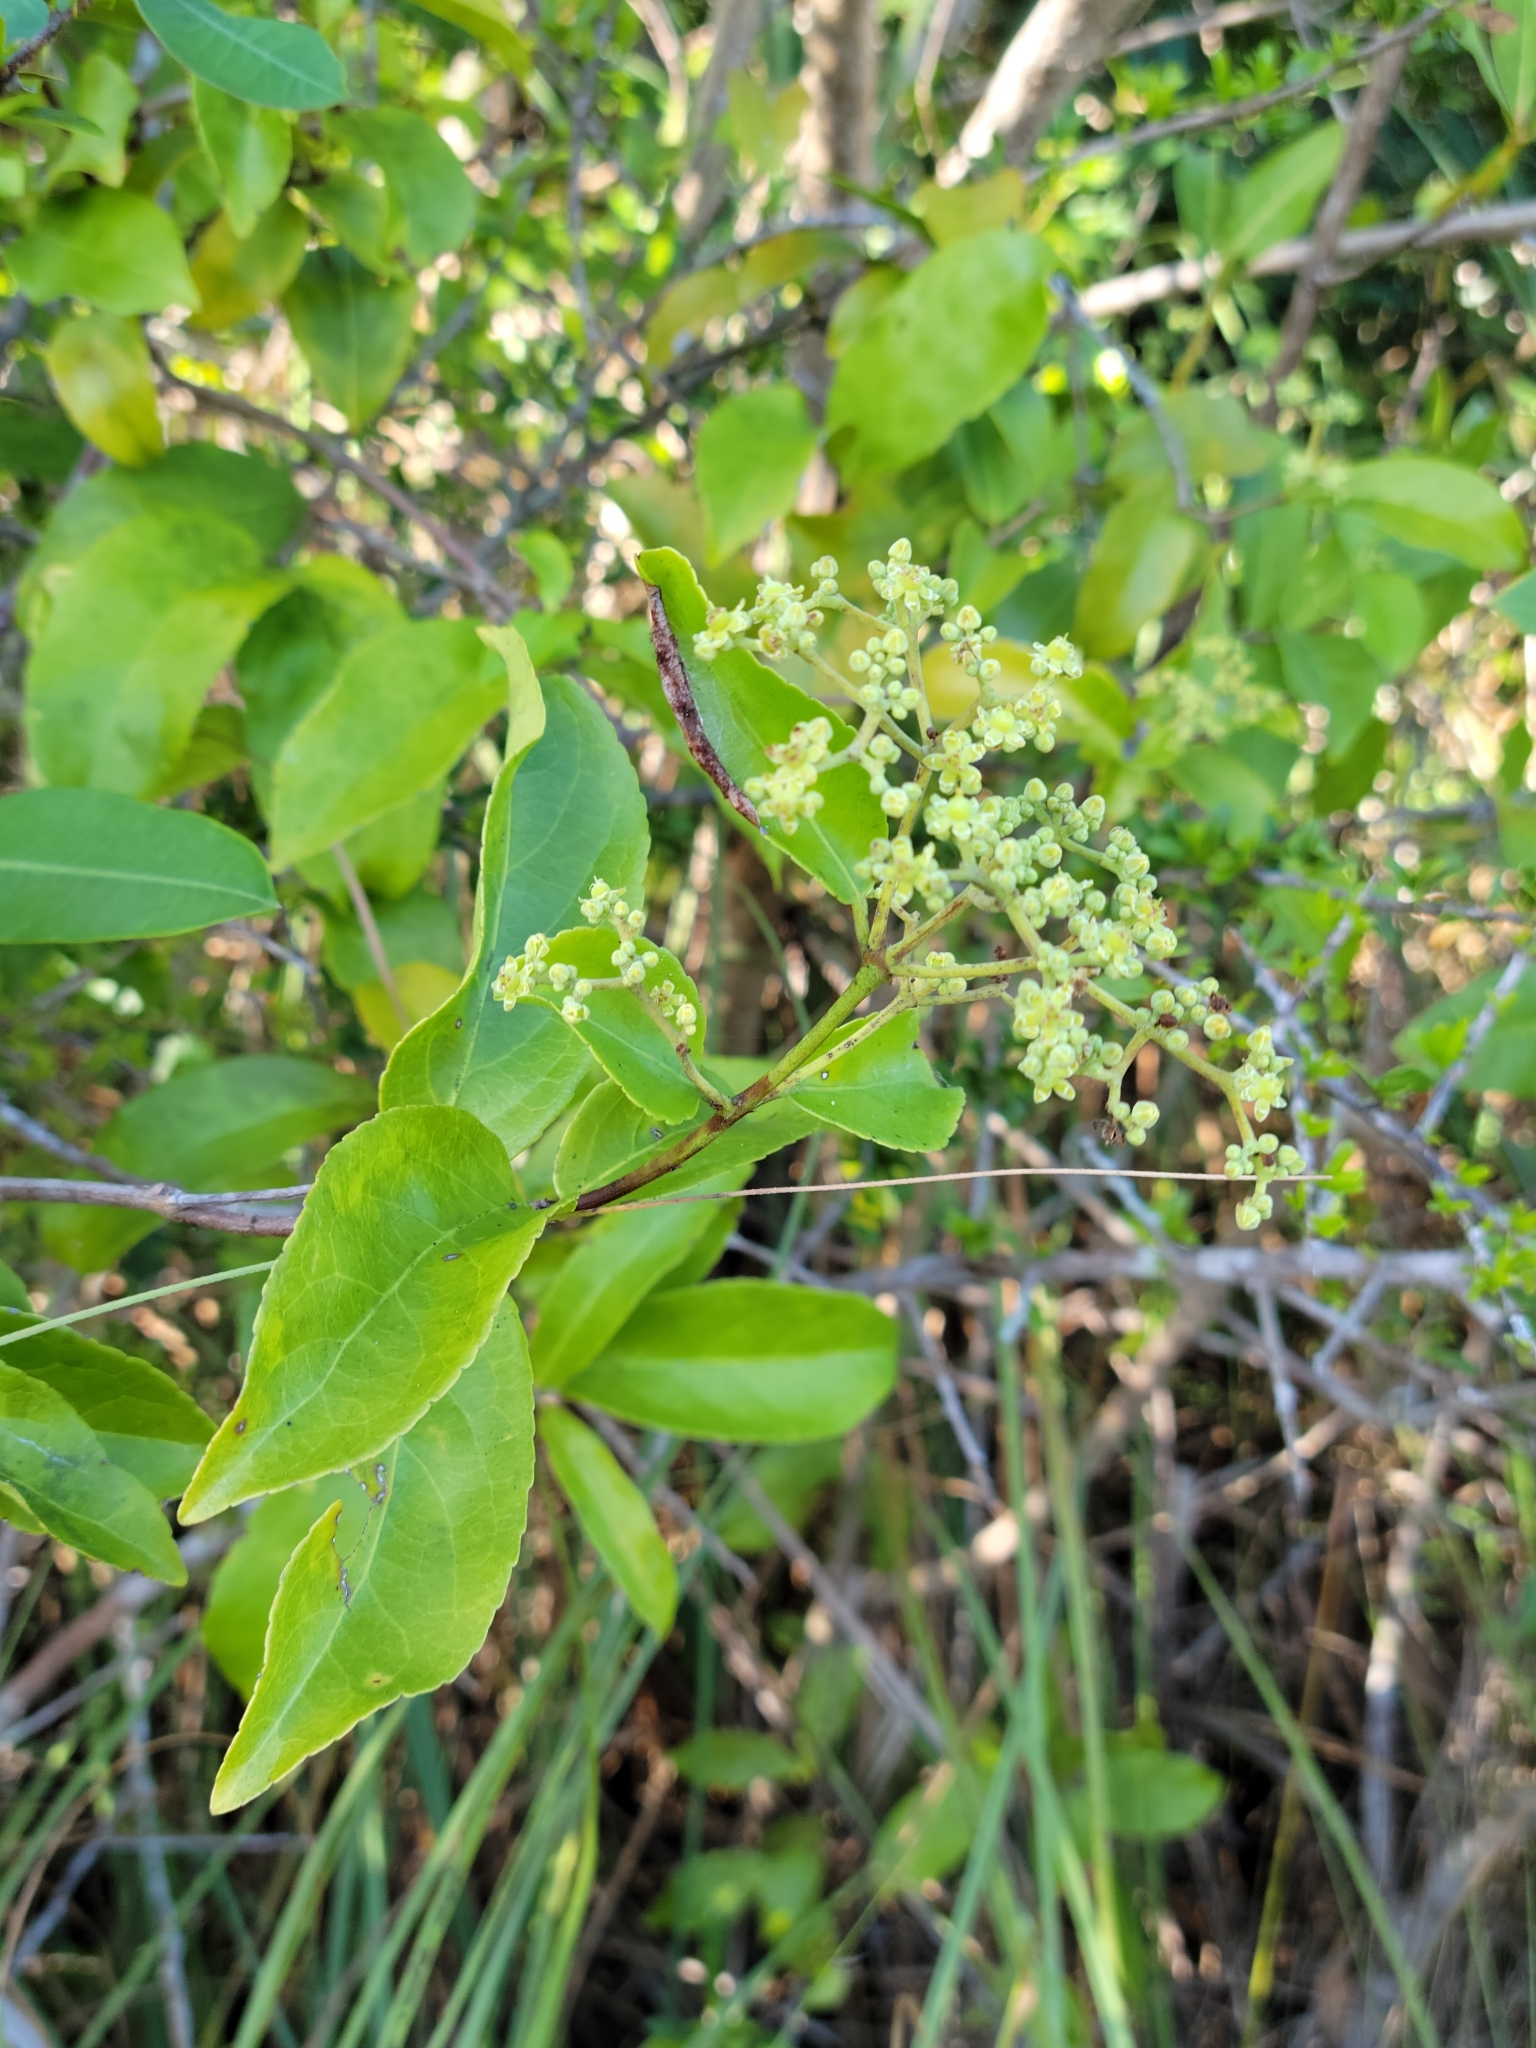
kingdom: Plantae
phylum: Tracheophyta
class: Magnoliopsida
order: Celastrales
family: Celastraceae
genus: Hippocratea
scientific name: Hippocratea volubilis
